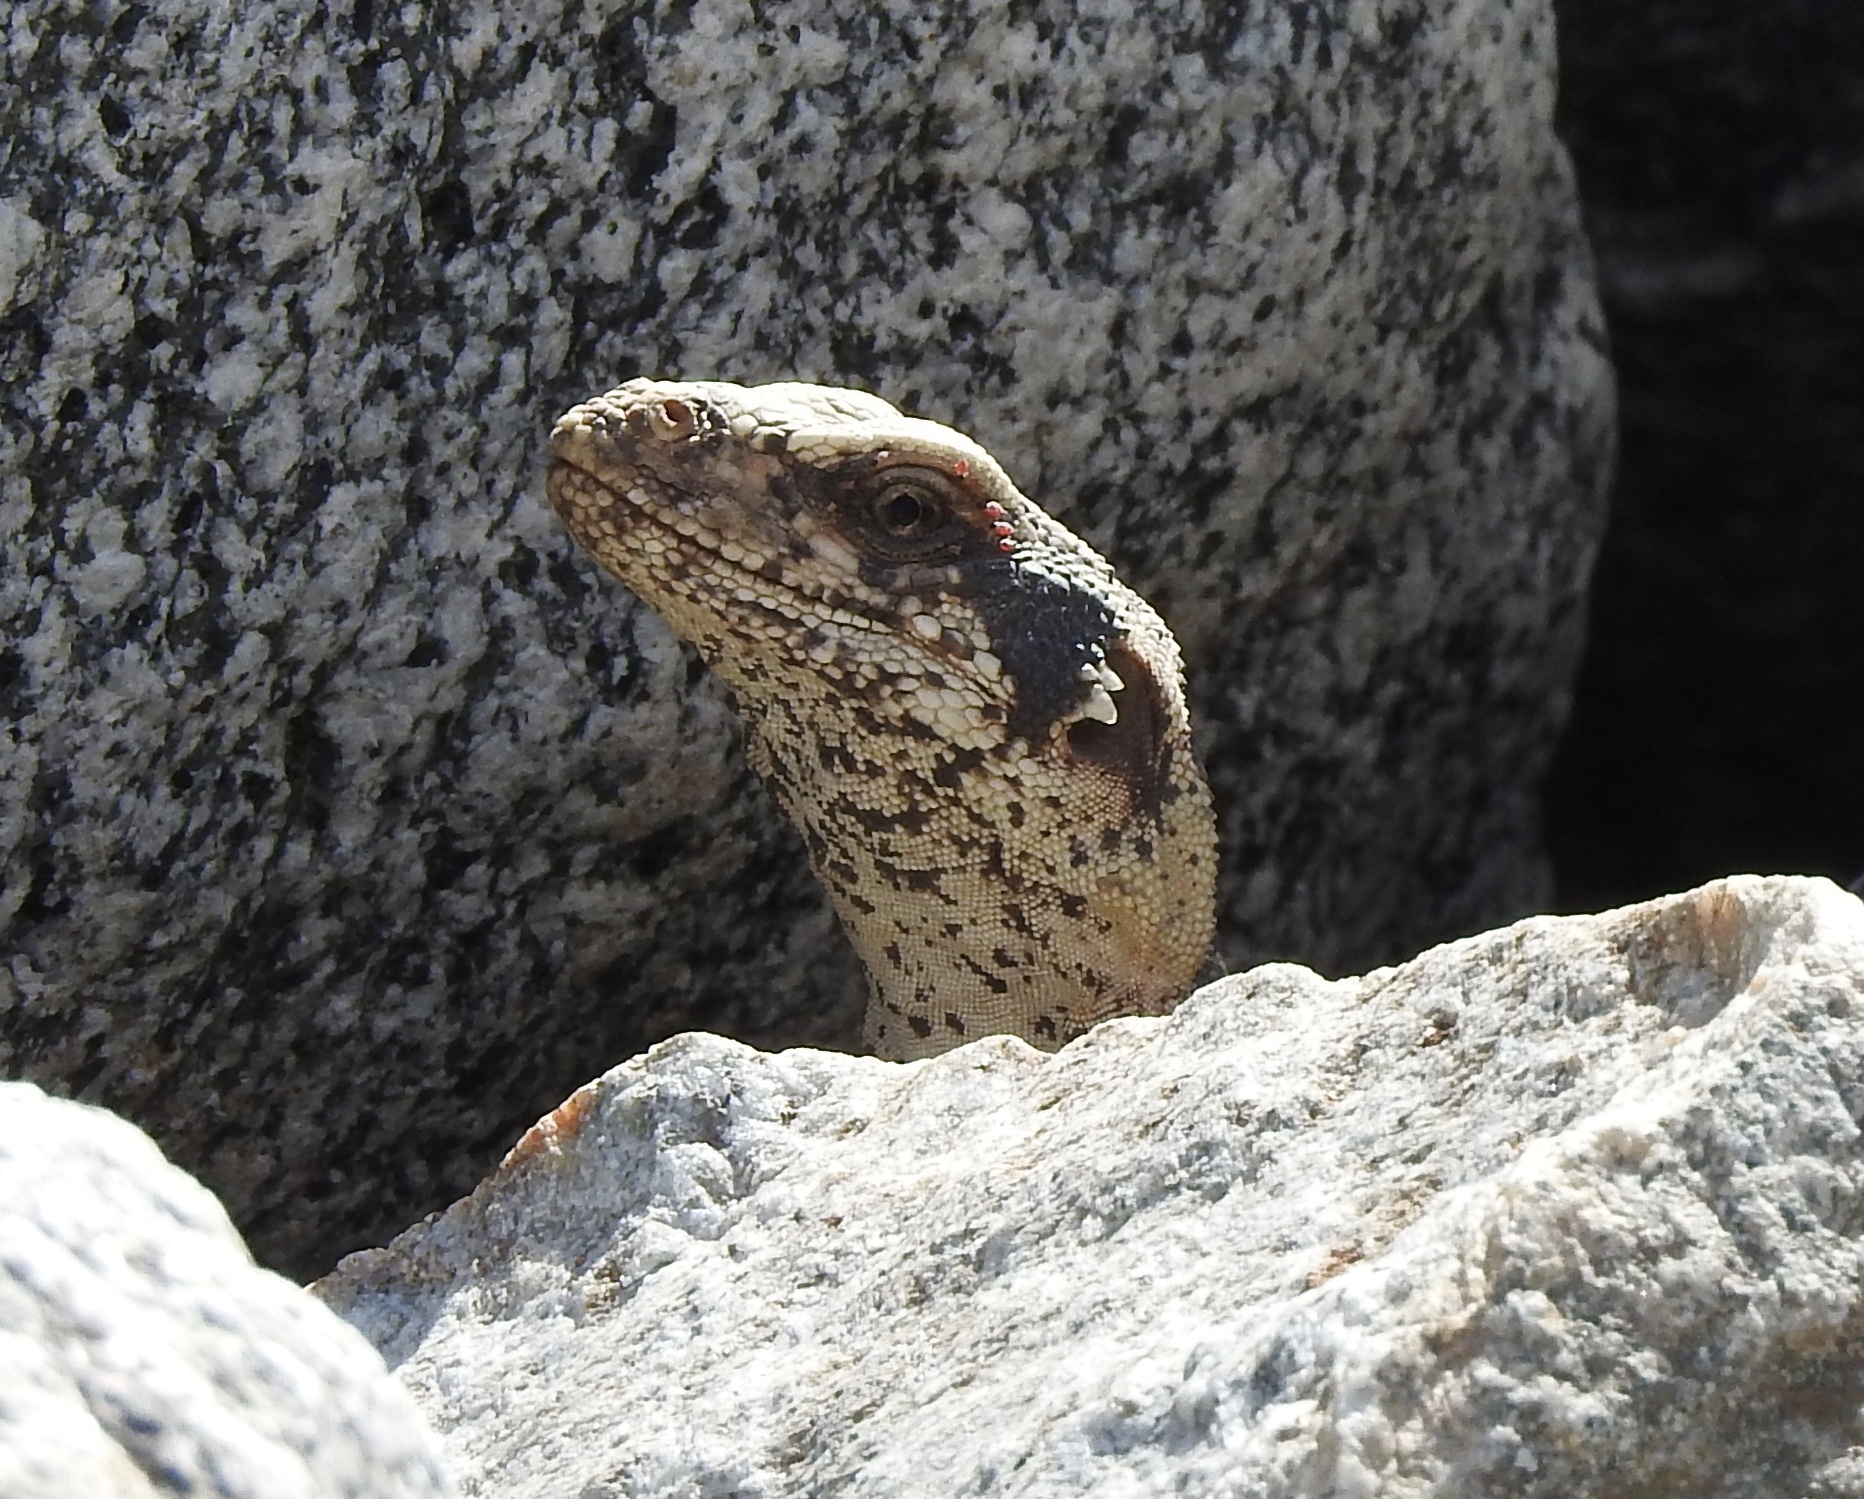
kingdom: Animalia
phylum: Chordata
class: Squamata
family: Iguanidae
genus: Sauromalus
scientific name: Sauromalus ater
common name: Northern chuckwalla
